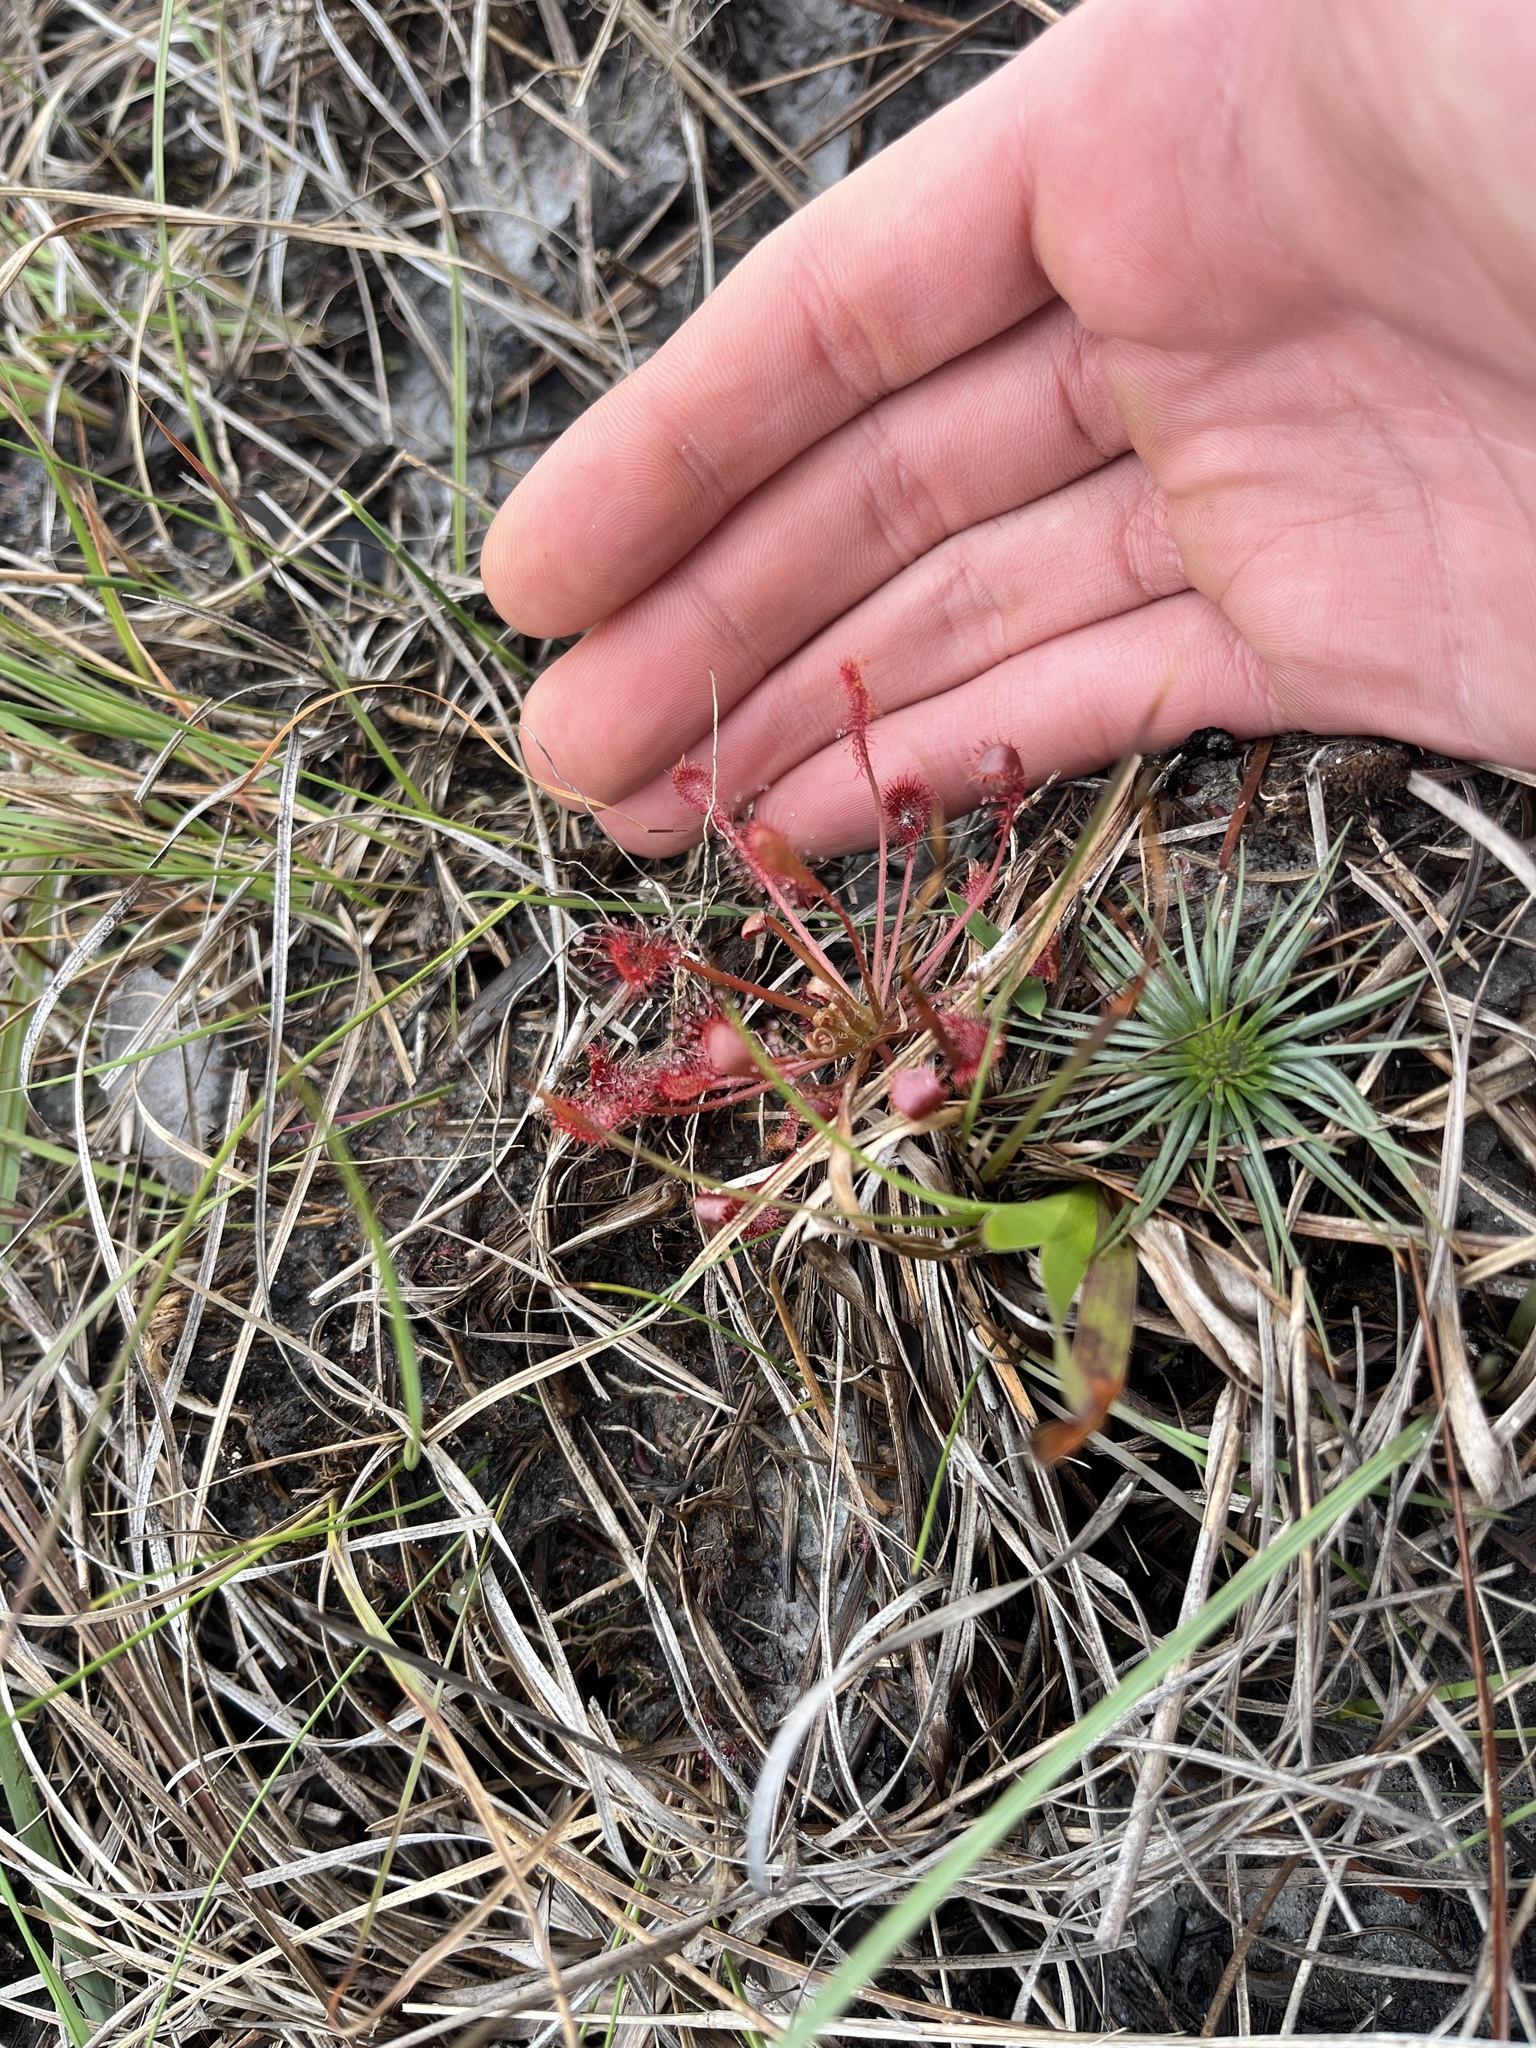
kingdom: Plantae
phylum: Tracheophyta
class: Magnoliopsida
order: Caryophyllales
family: Droseraceae
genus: Drosera
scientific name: Drosera capillaris
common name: Pink sundew
